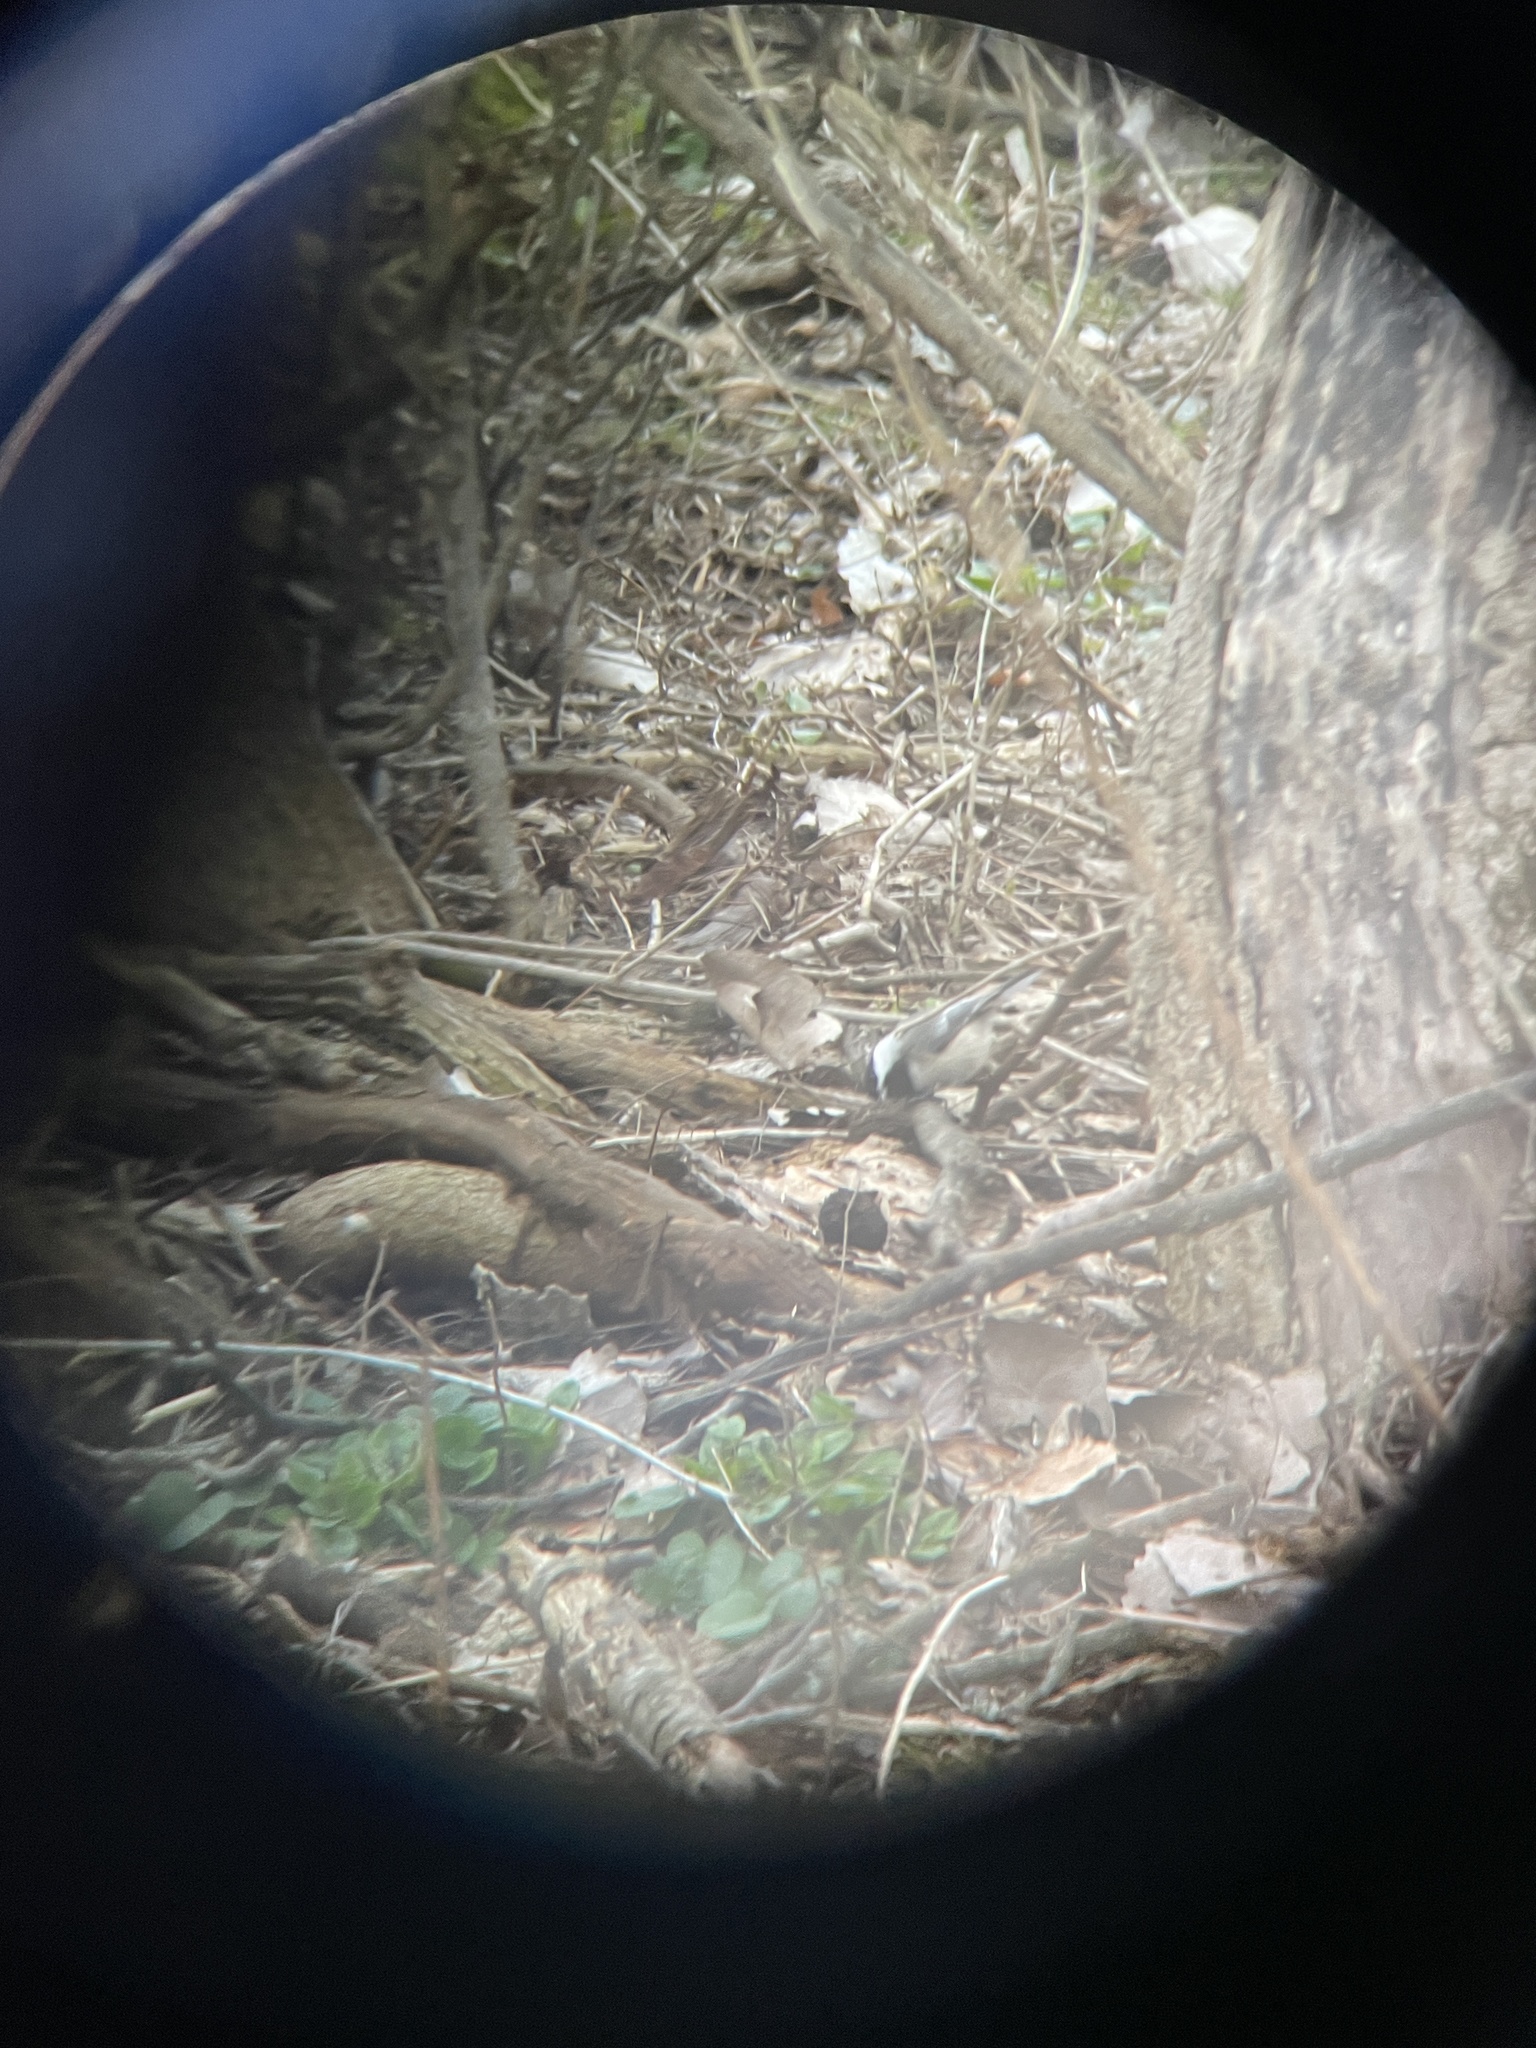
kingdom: Animalia
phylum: Chordata
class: Aves
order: Passeriformes
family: Paridae
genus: Poecile
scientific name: Poecile atricapillus
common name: Black-capped chickadee
